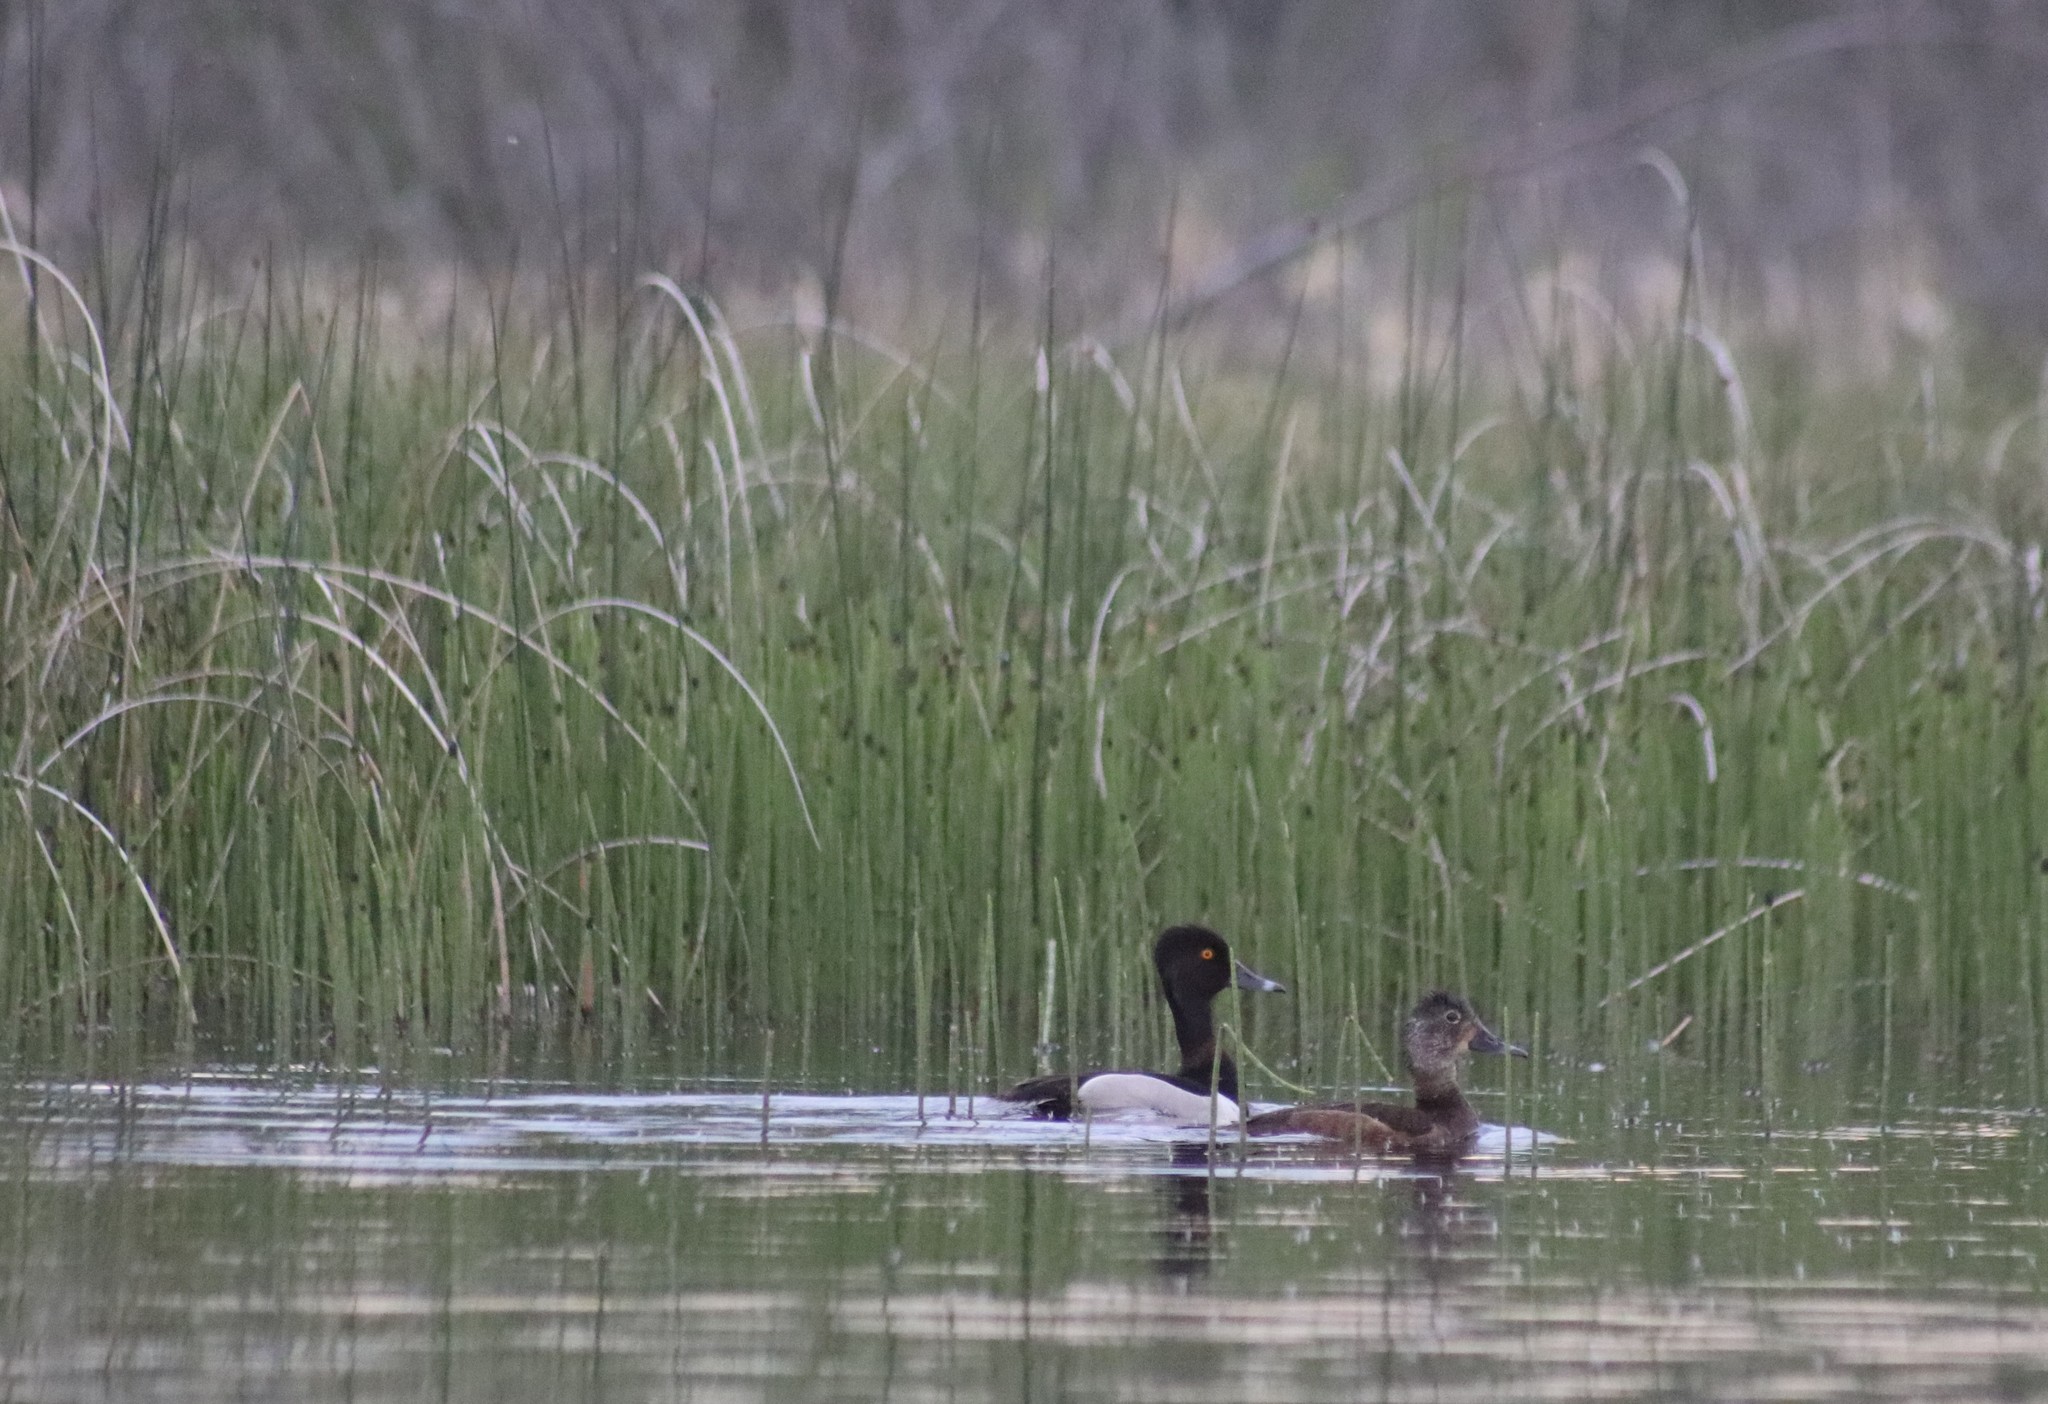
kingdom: Animalia
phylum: Chordata
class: Aves
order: Anseriformes
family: Anatidae
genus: Aythya
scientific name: Aythya collaris
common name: Ring-necked duck
